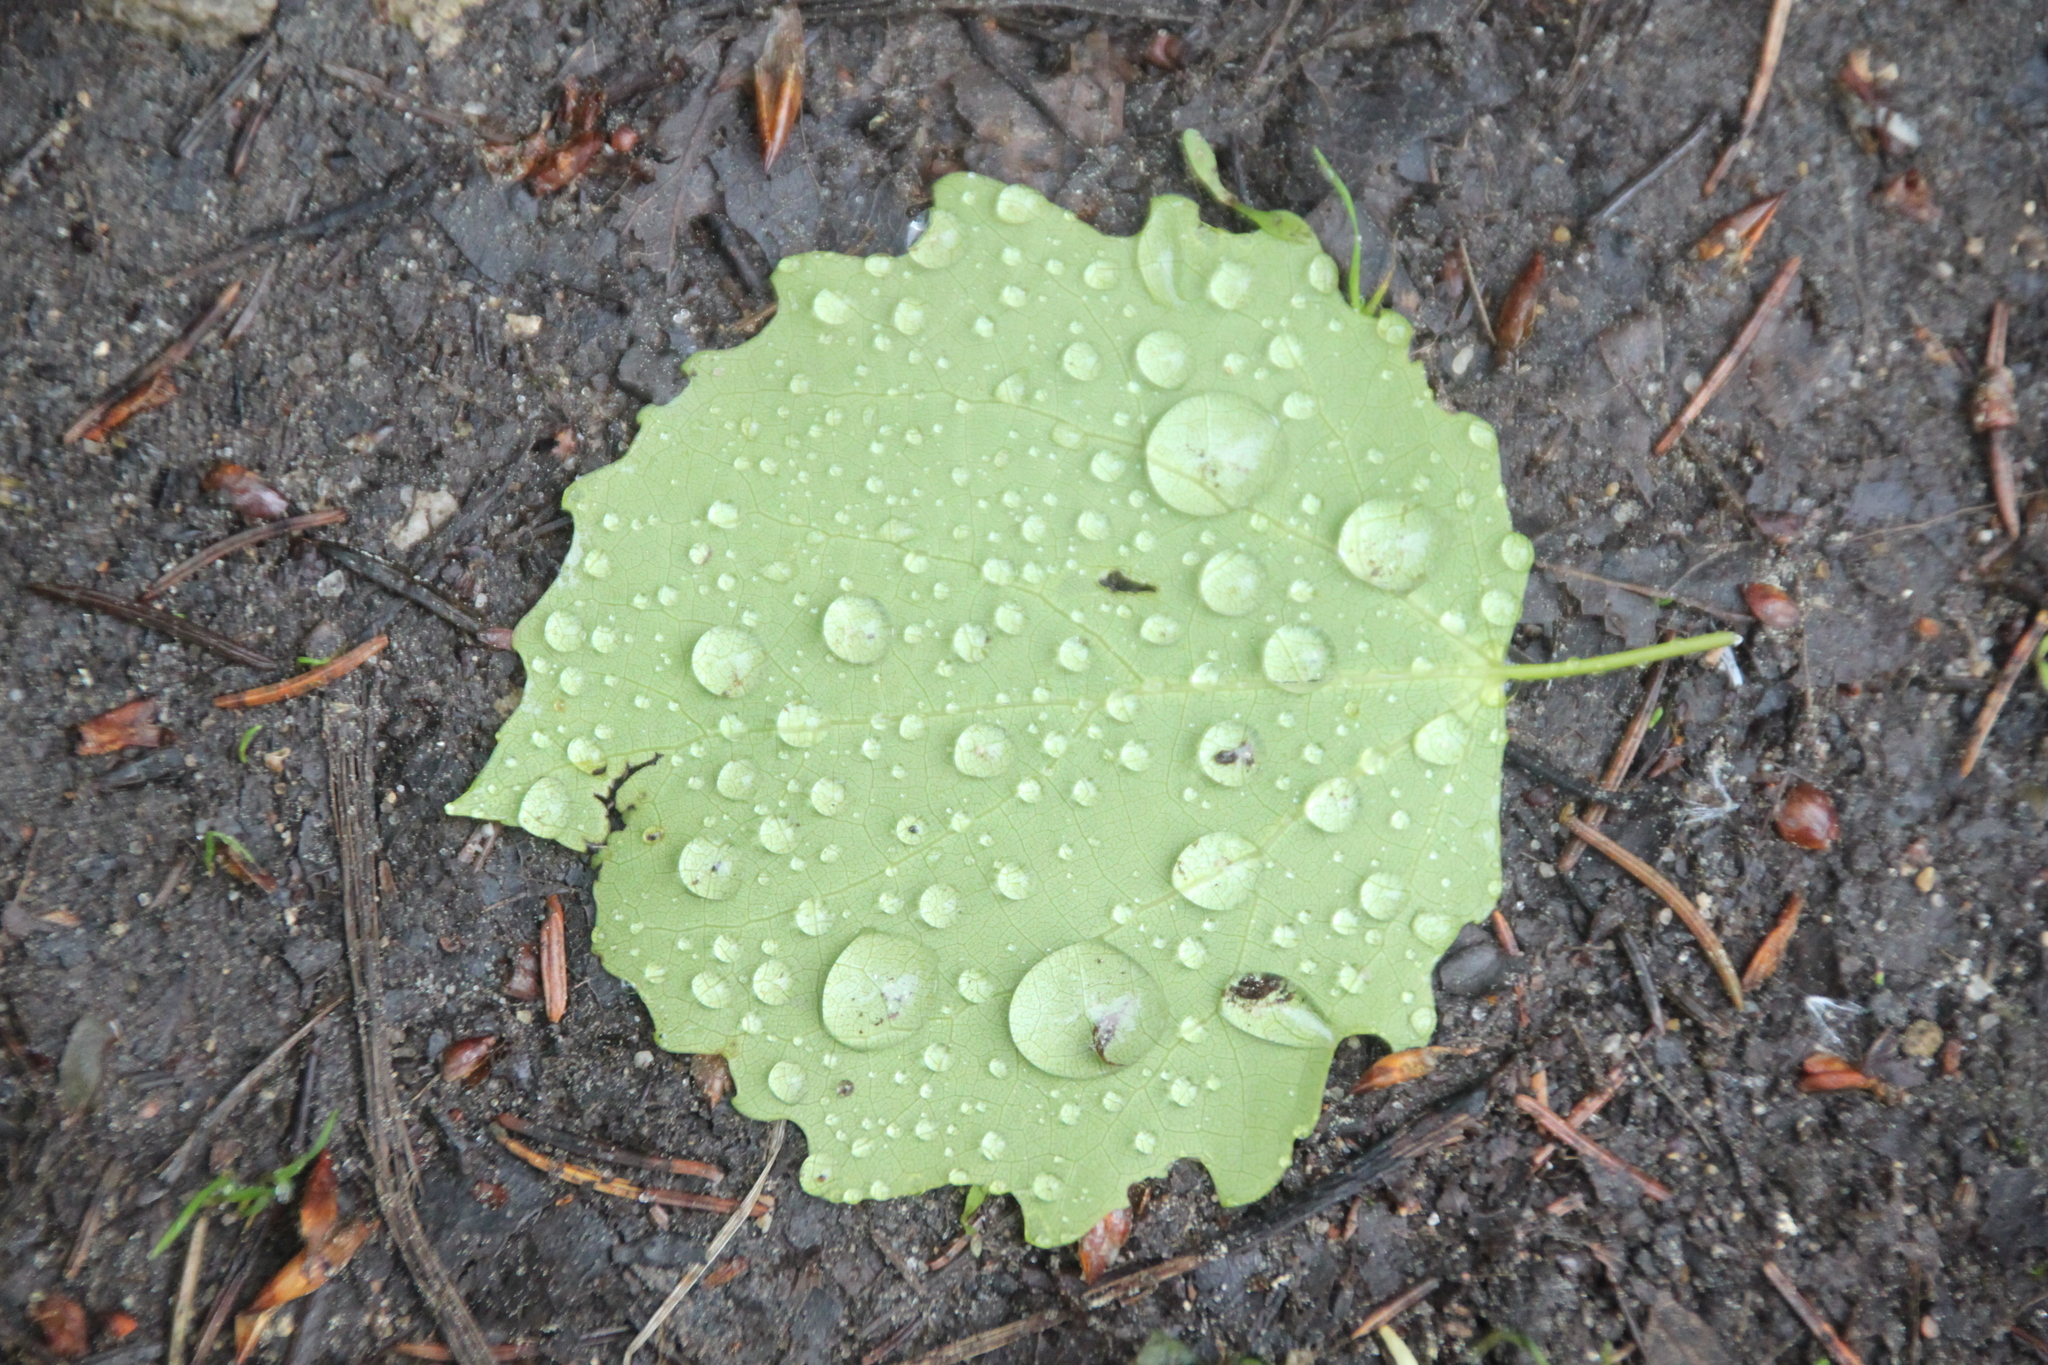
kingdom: Plantae
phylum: Tracheophyta
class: Magnoliopsida
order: Malpighiales
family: Salicaceae
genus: Populus
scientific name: Populus tremula
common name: European aspen
